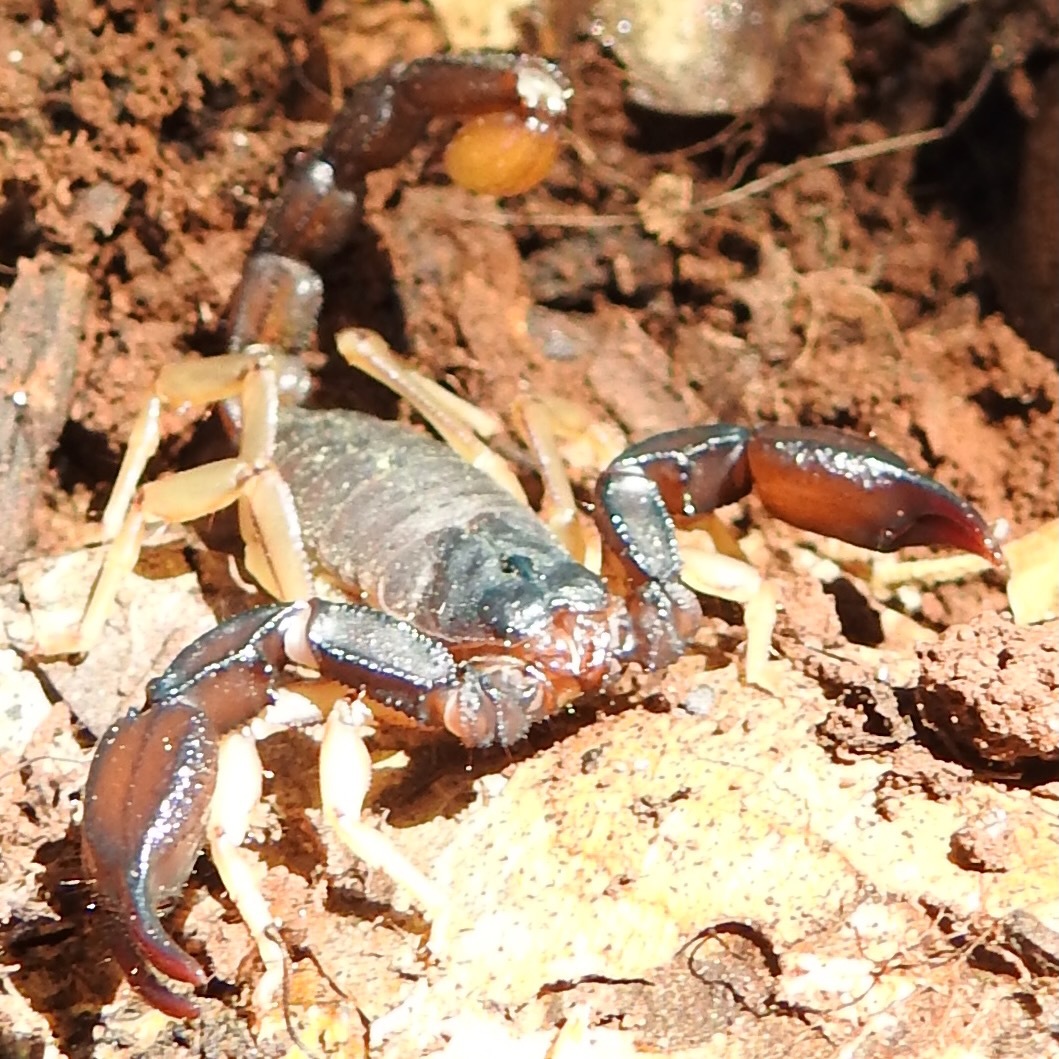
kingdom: Animalia
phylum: Arthropoda
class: Arachnida
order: Scorpiones
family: Chactidae
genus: Uroctonus
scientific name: Uroctonus mordax
